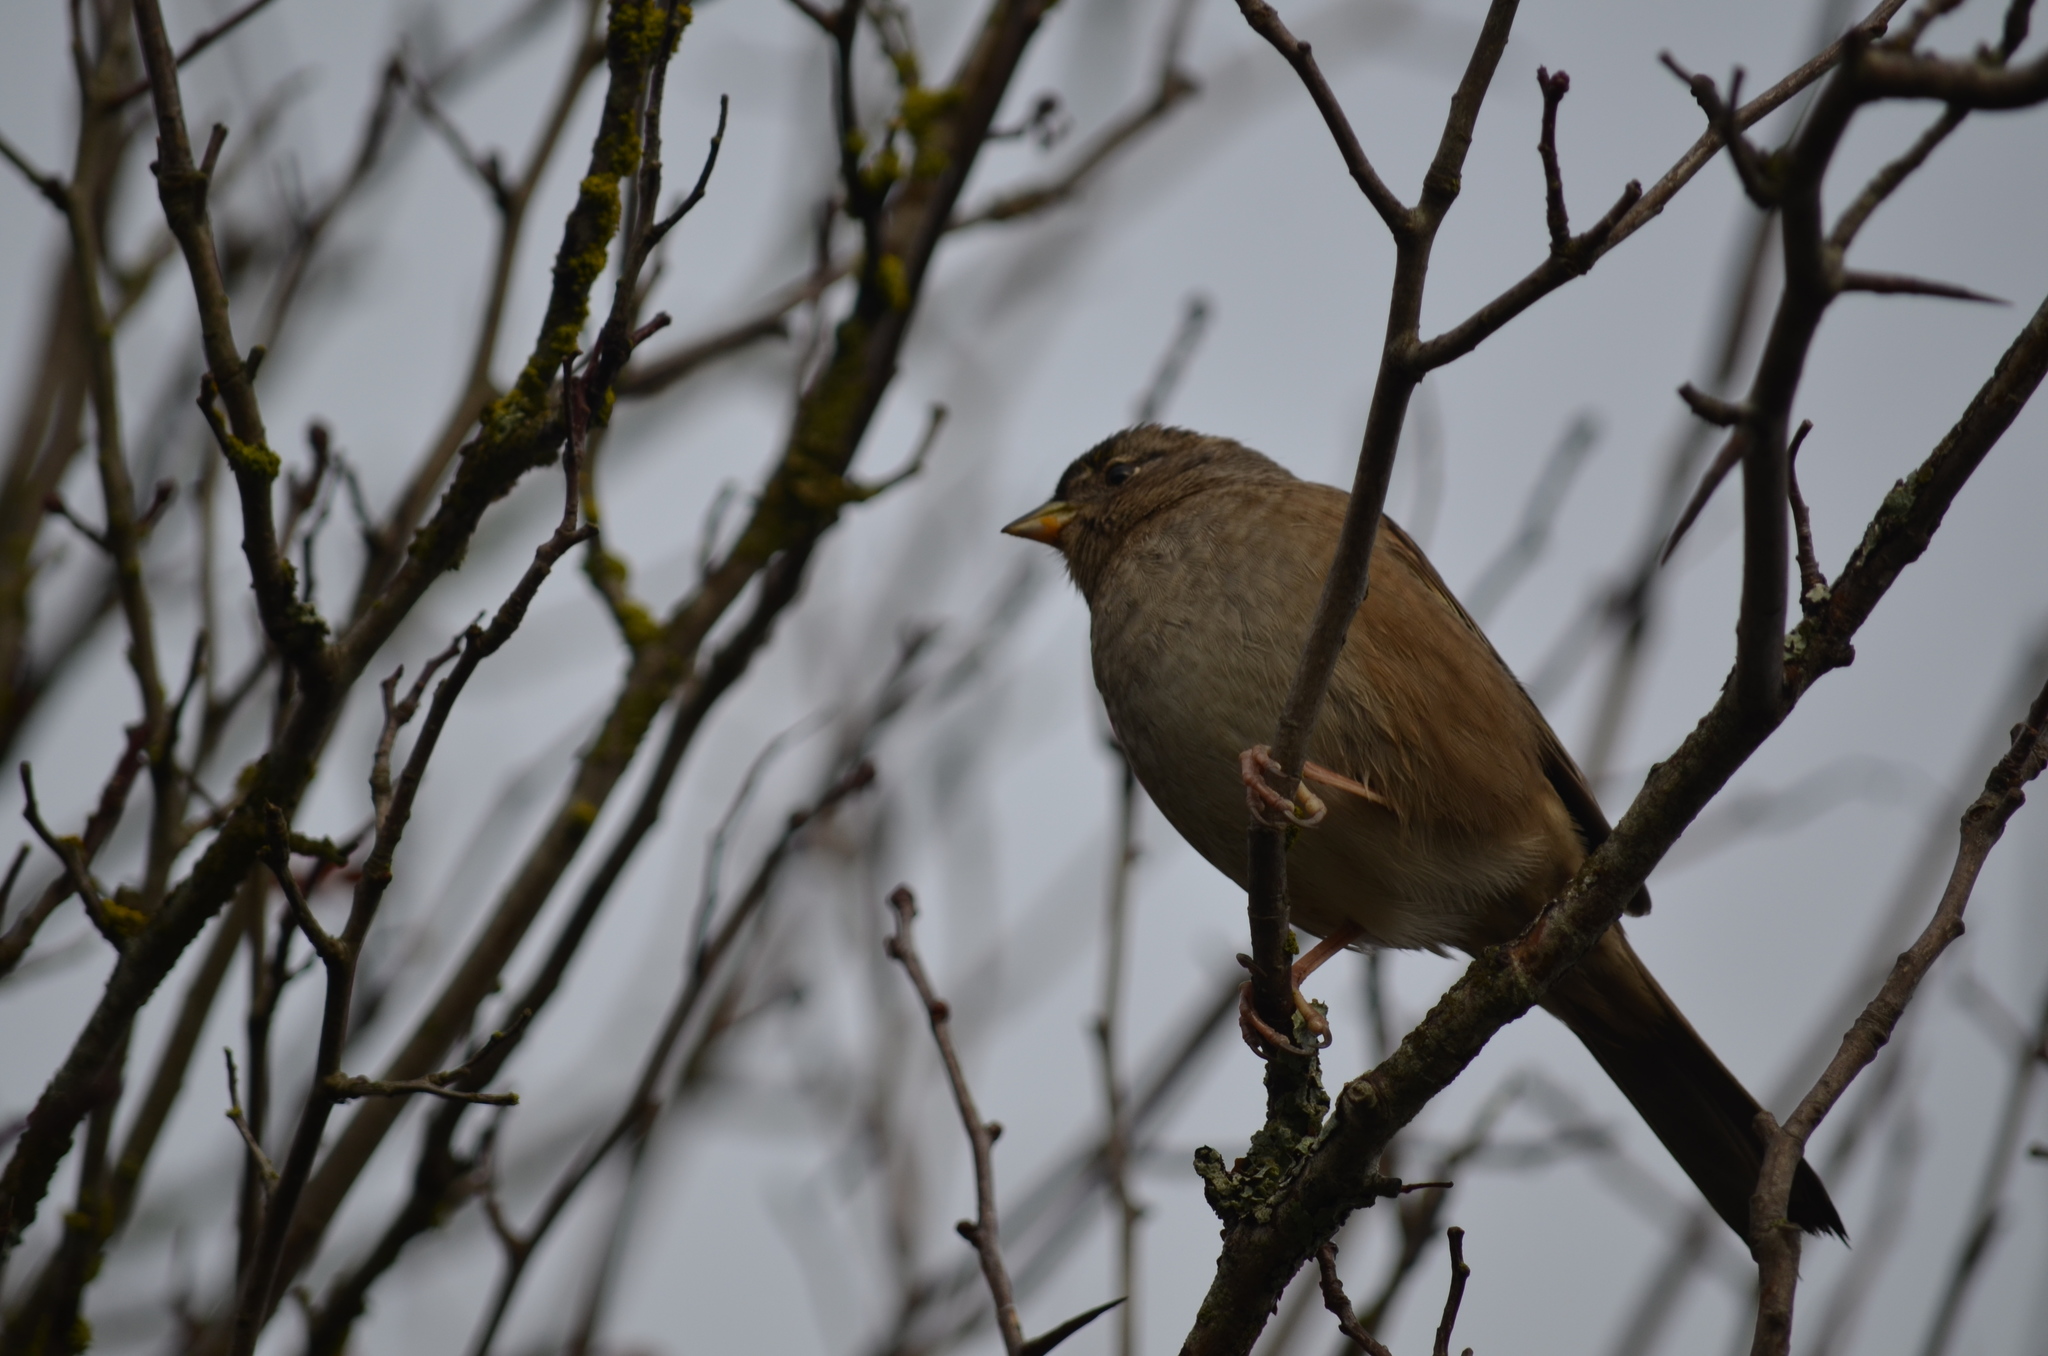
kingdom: Animalia
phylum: Chordata
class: Aves
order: Passeriformes
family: Passerellidae
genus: Zonotrichia
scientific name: Zonotrichia atricapilla
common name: Golden-crowned sparrow
